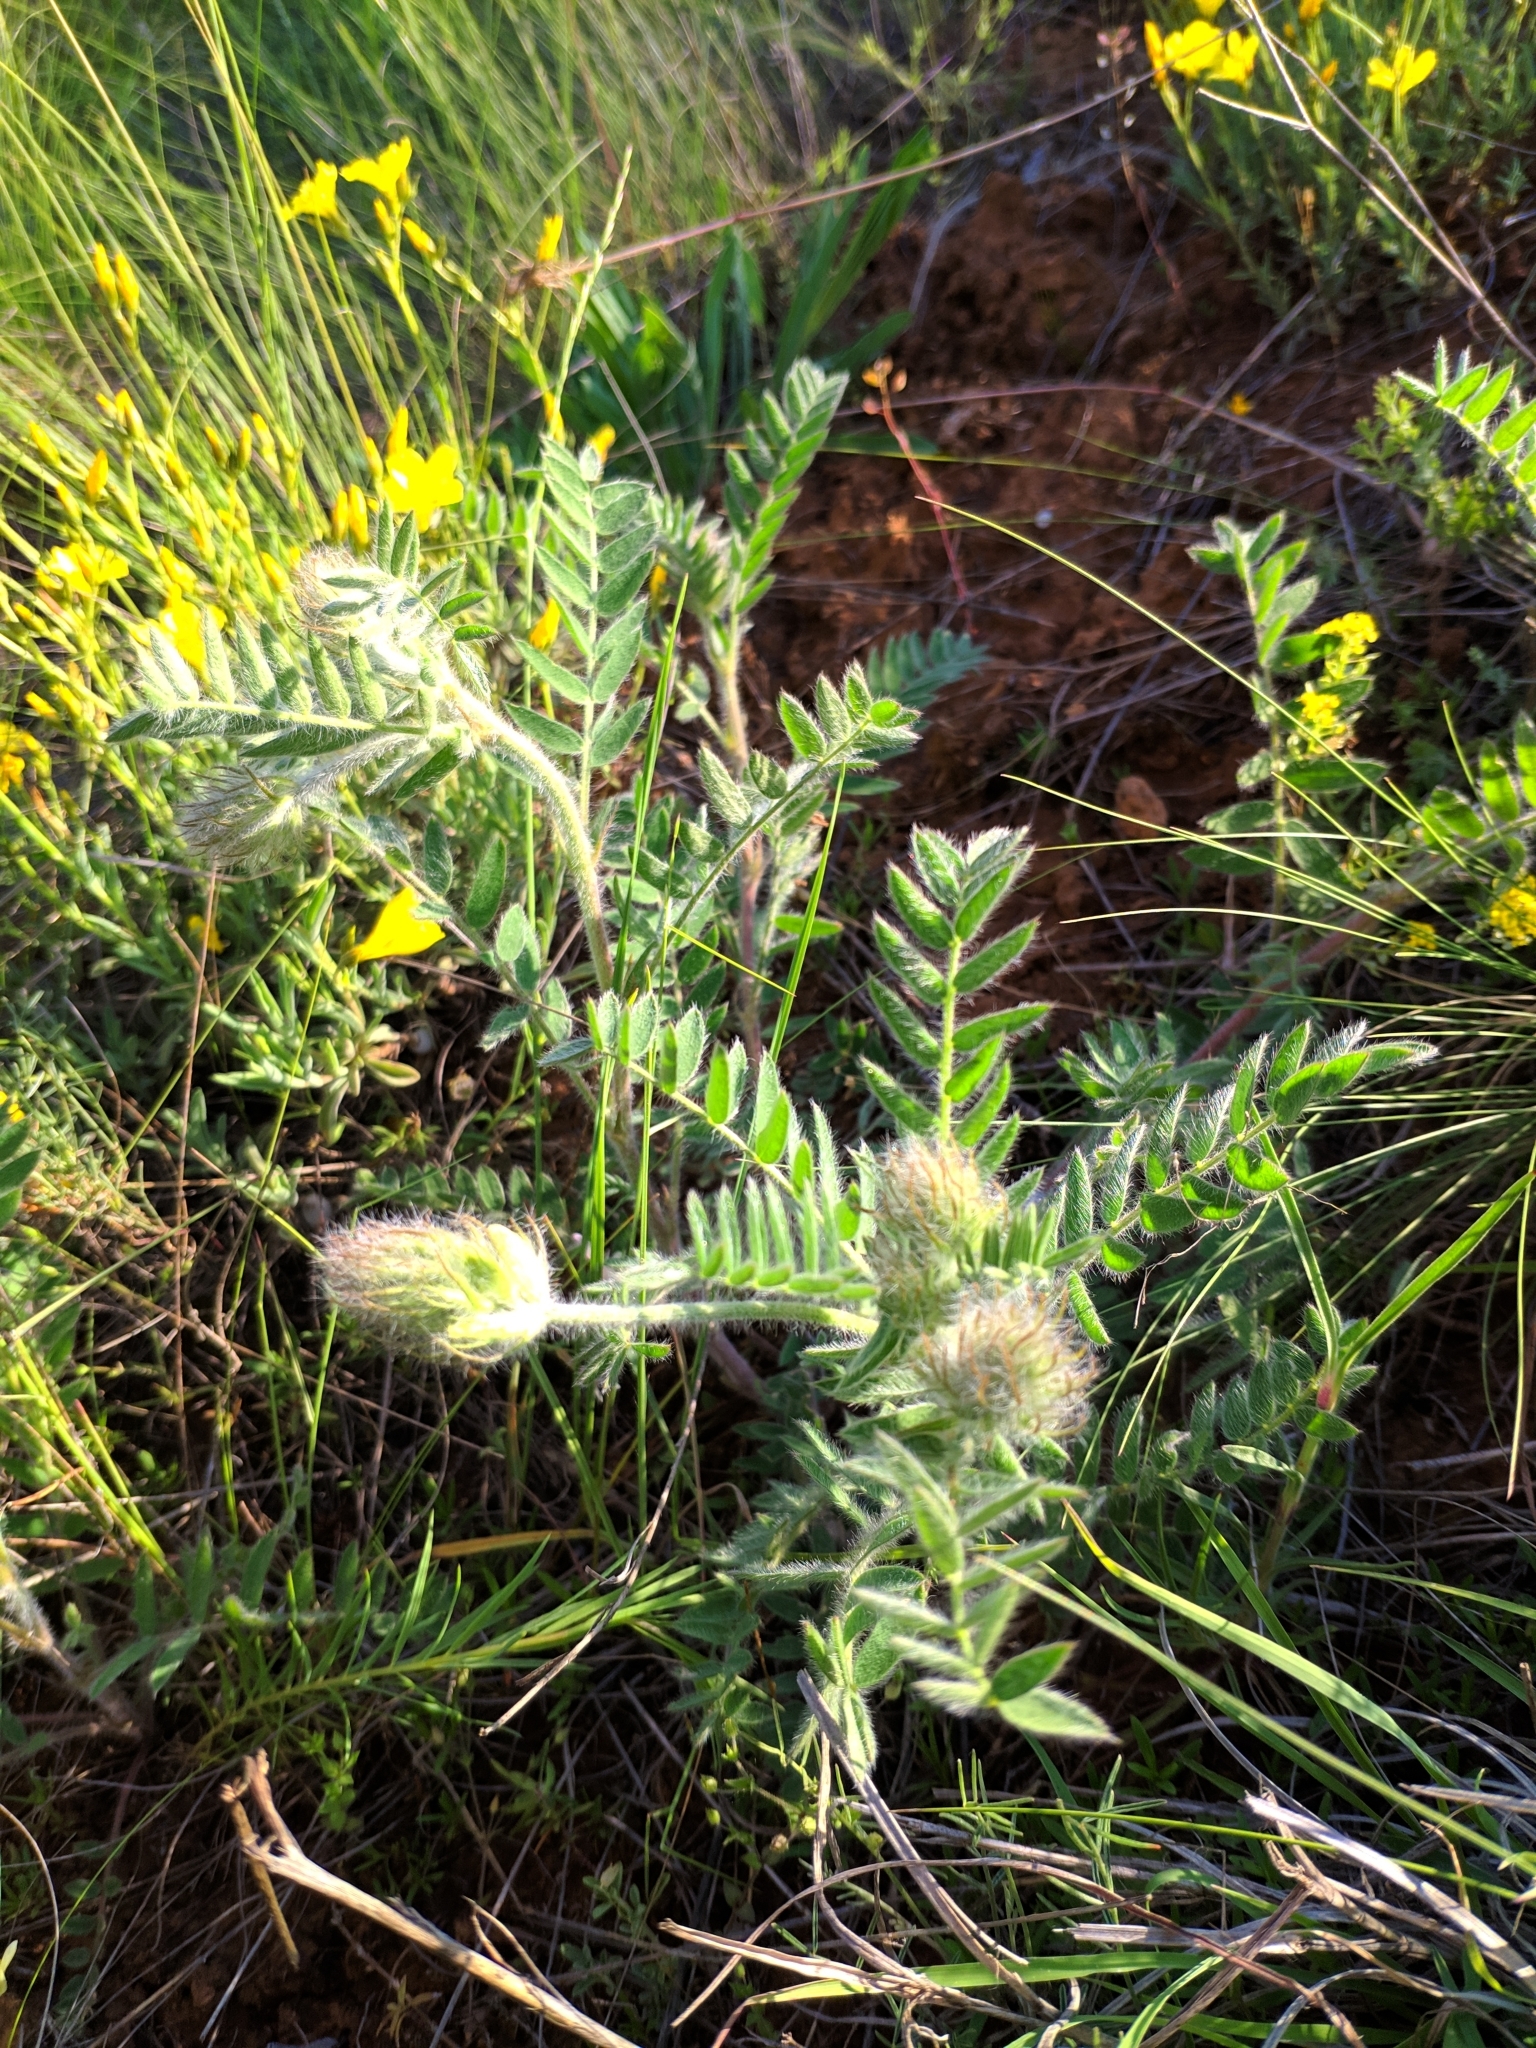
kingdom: Plantae
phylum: Tracheophyta
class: Magnoliopsida
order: Fabales
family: Fabaceae
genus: Oxytropis
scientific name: Oxytropis pilosa
